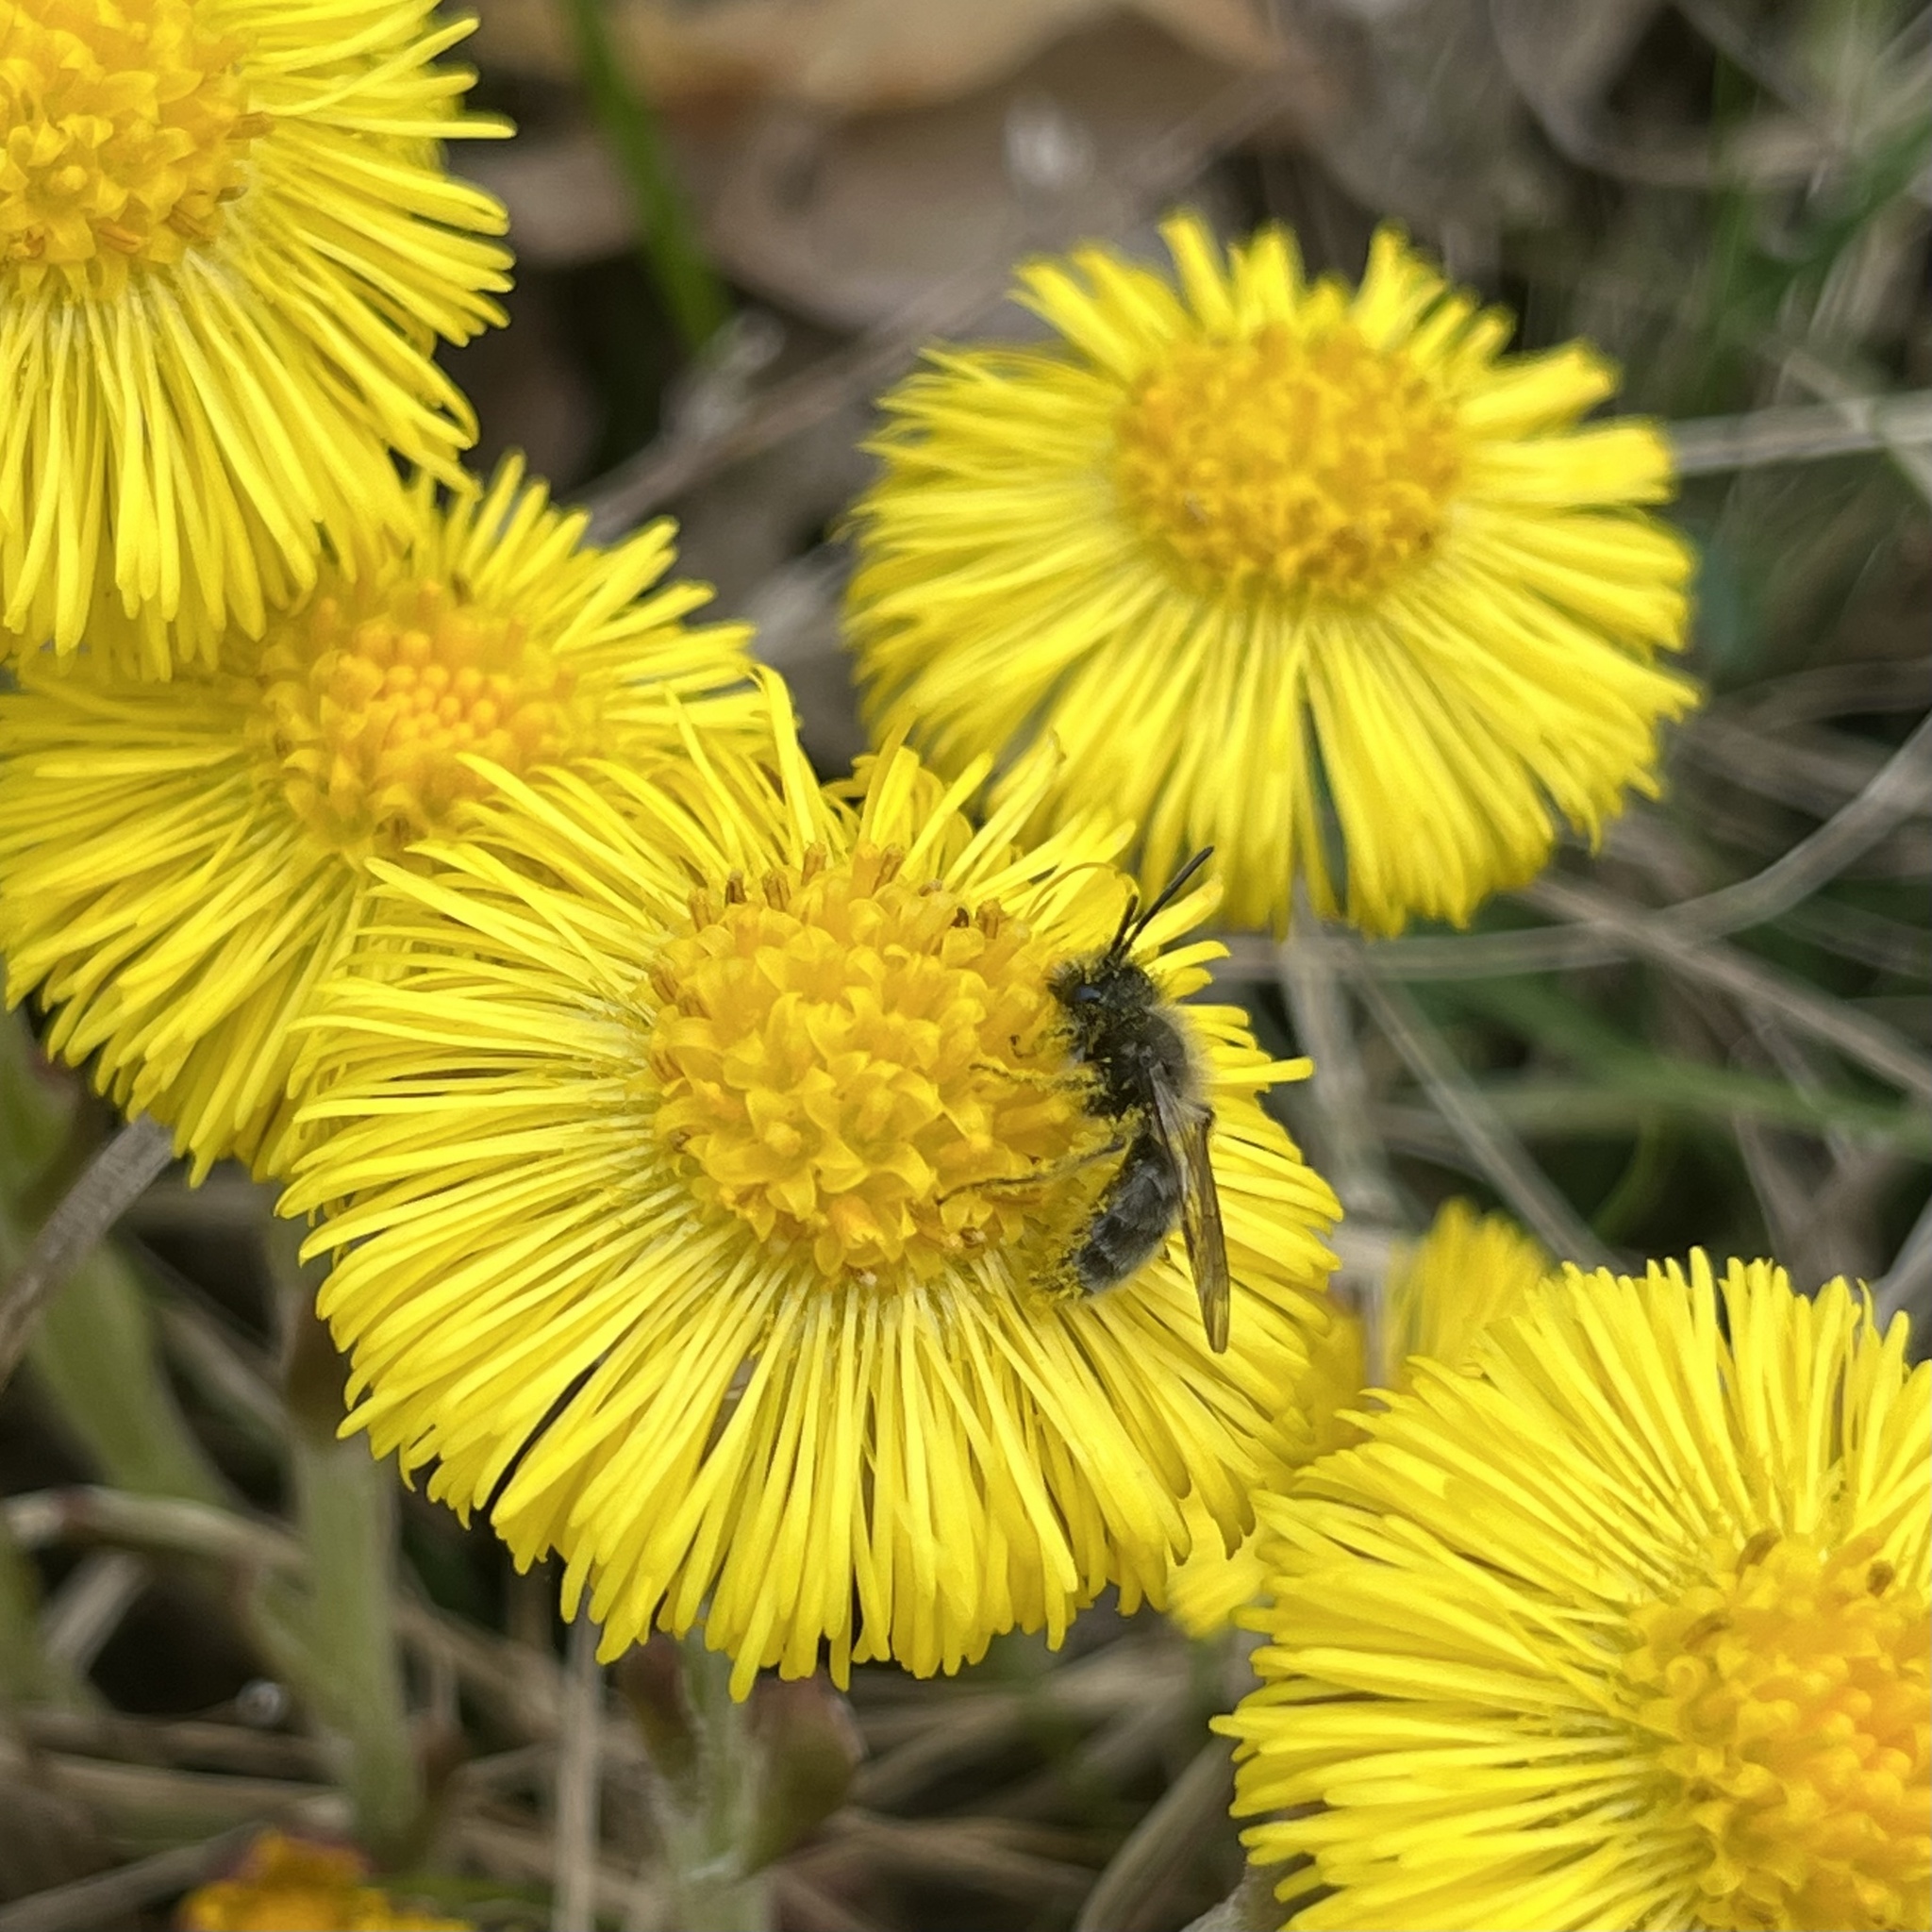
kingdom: Plantae
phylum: Tracheophyta
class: Magnoliopsida
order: Asterales
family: Asteraceae
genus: Tussilago
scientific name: Tussilago farfara
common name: Coltsfoot
